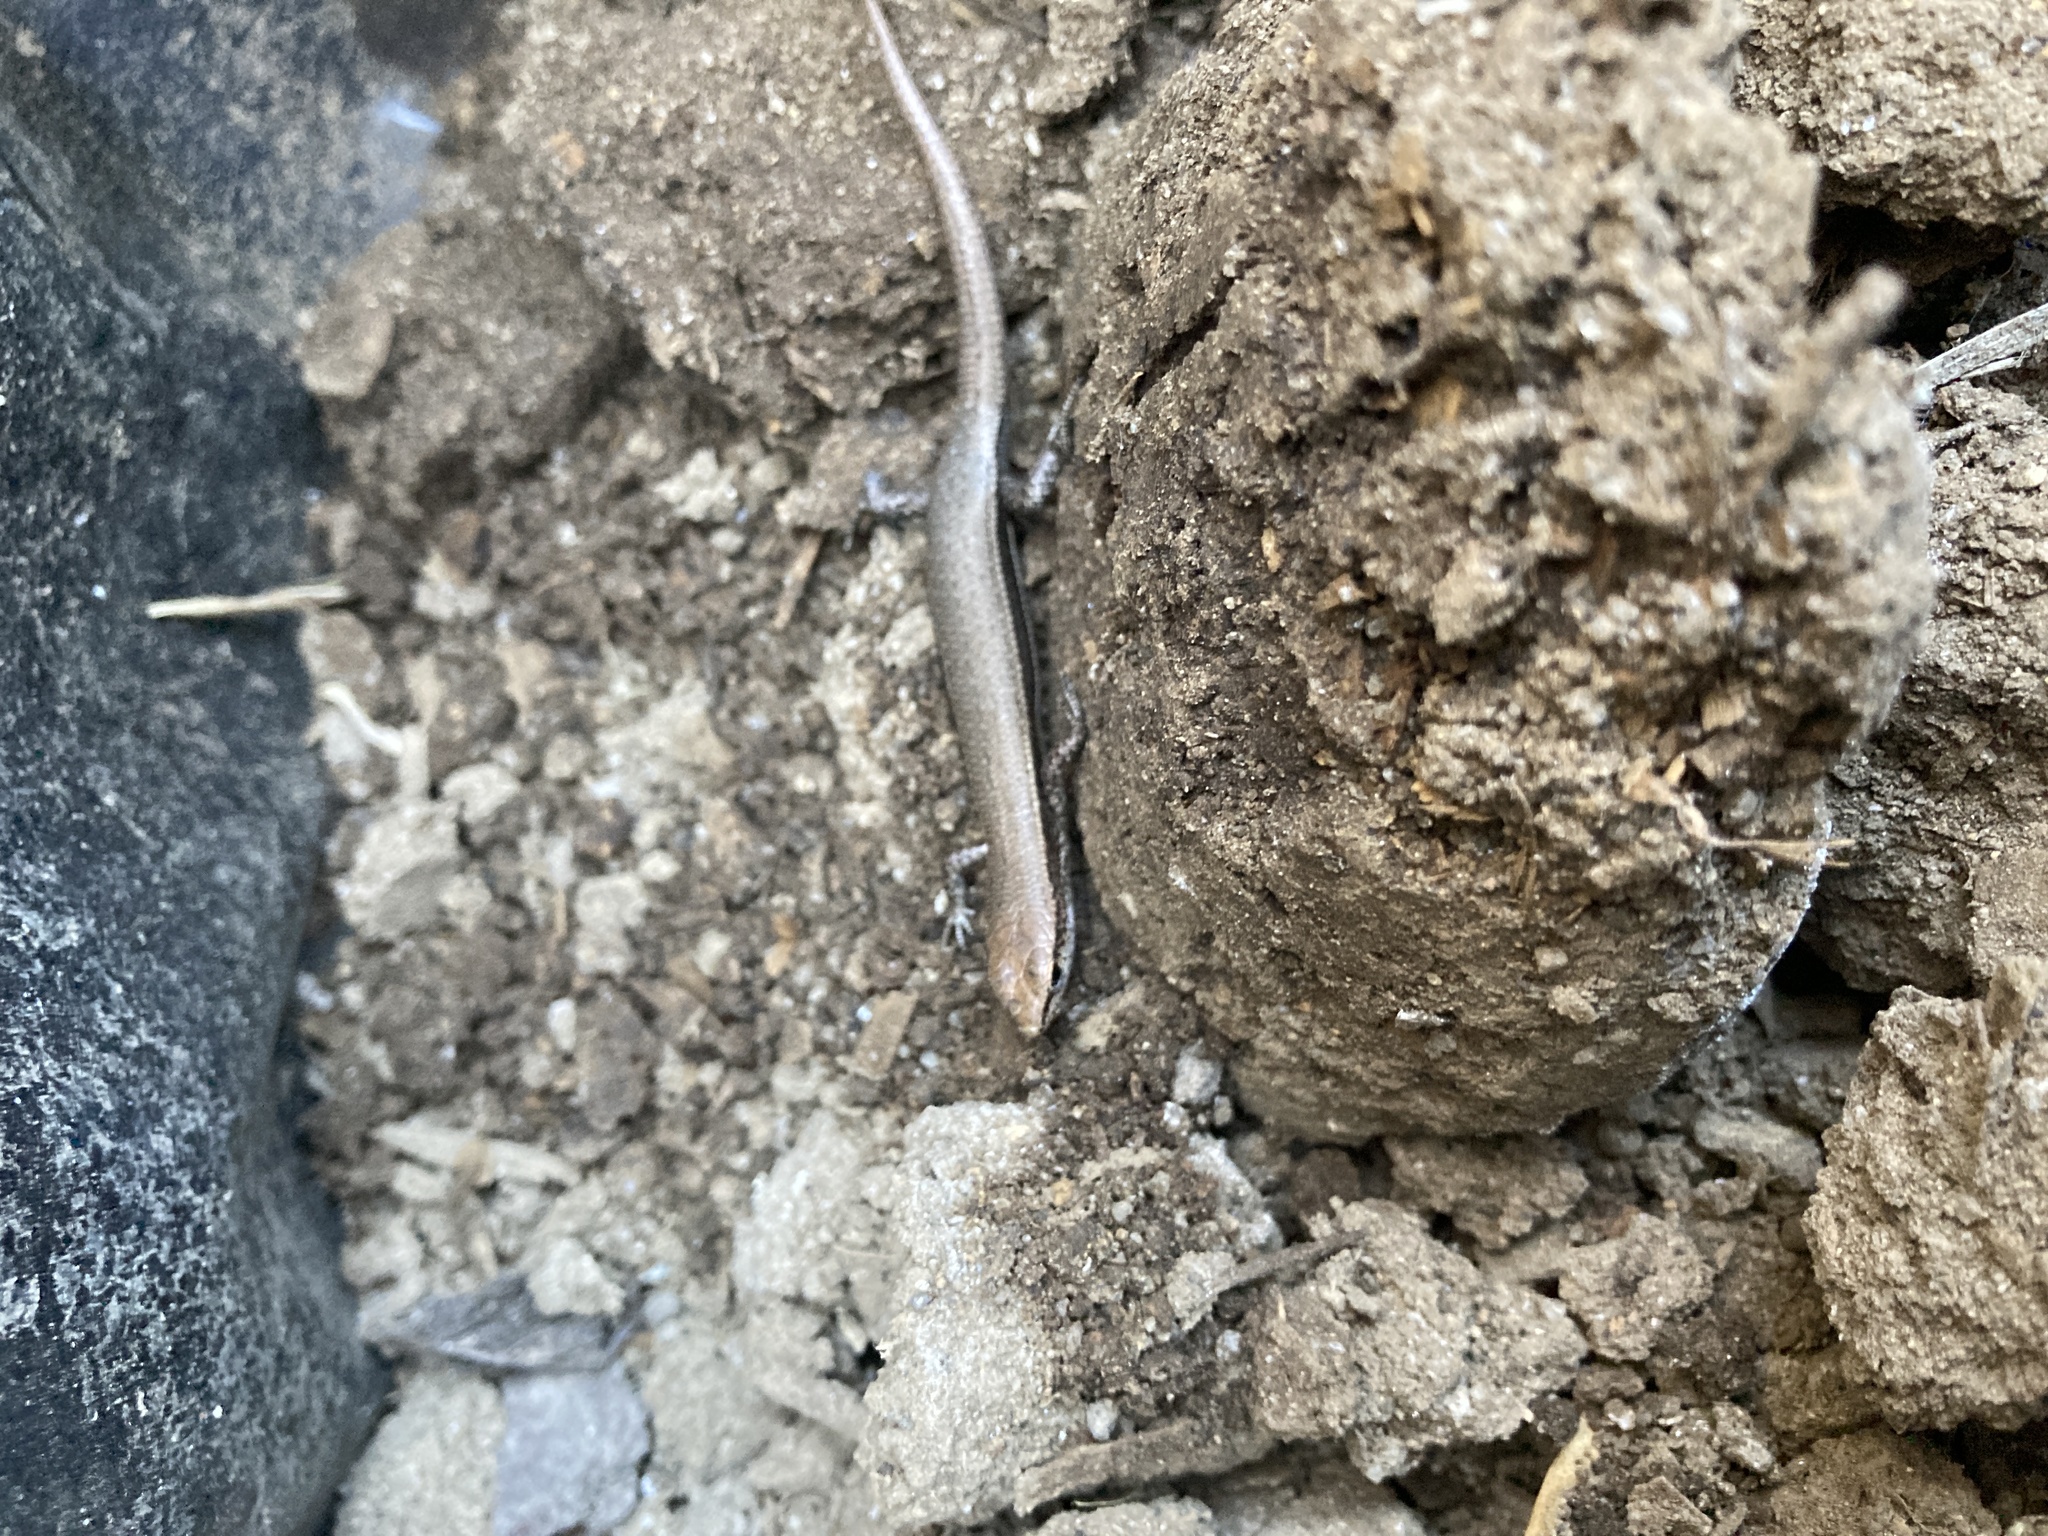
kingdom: Animalia
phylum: Chordata
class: Squamata
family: Scincidae
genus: Lampropholis
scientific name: Lampropholis delicata
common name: Plague skink
